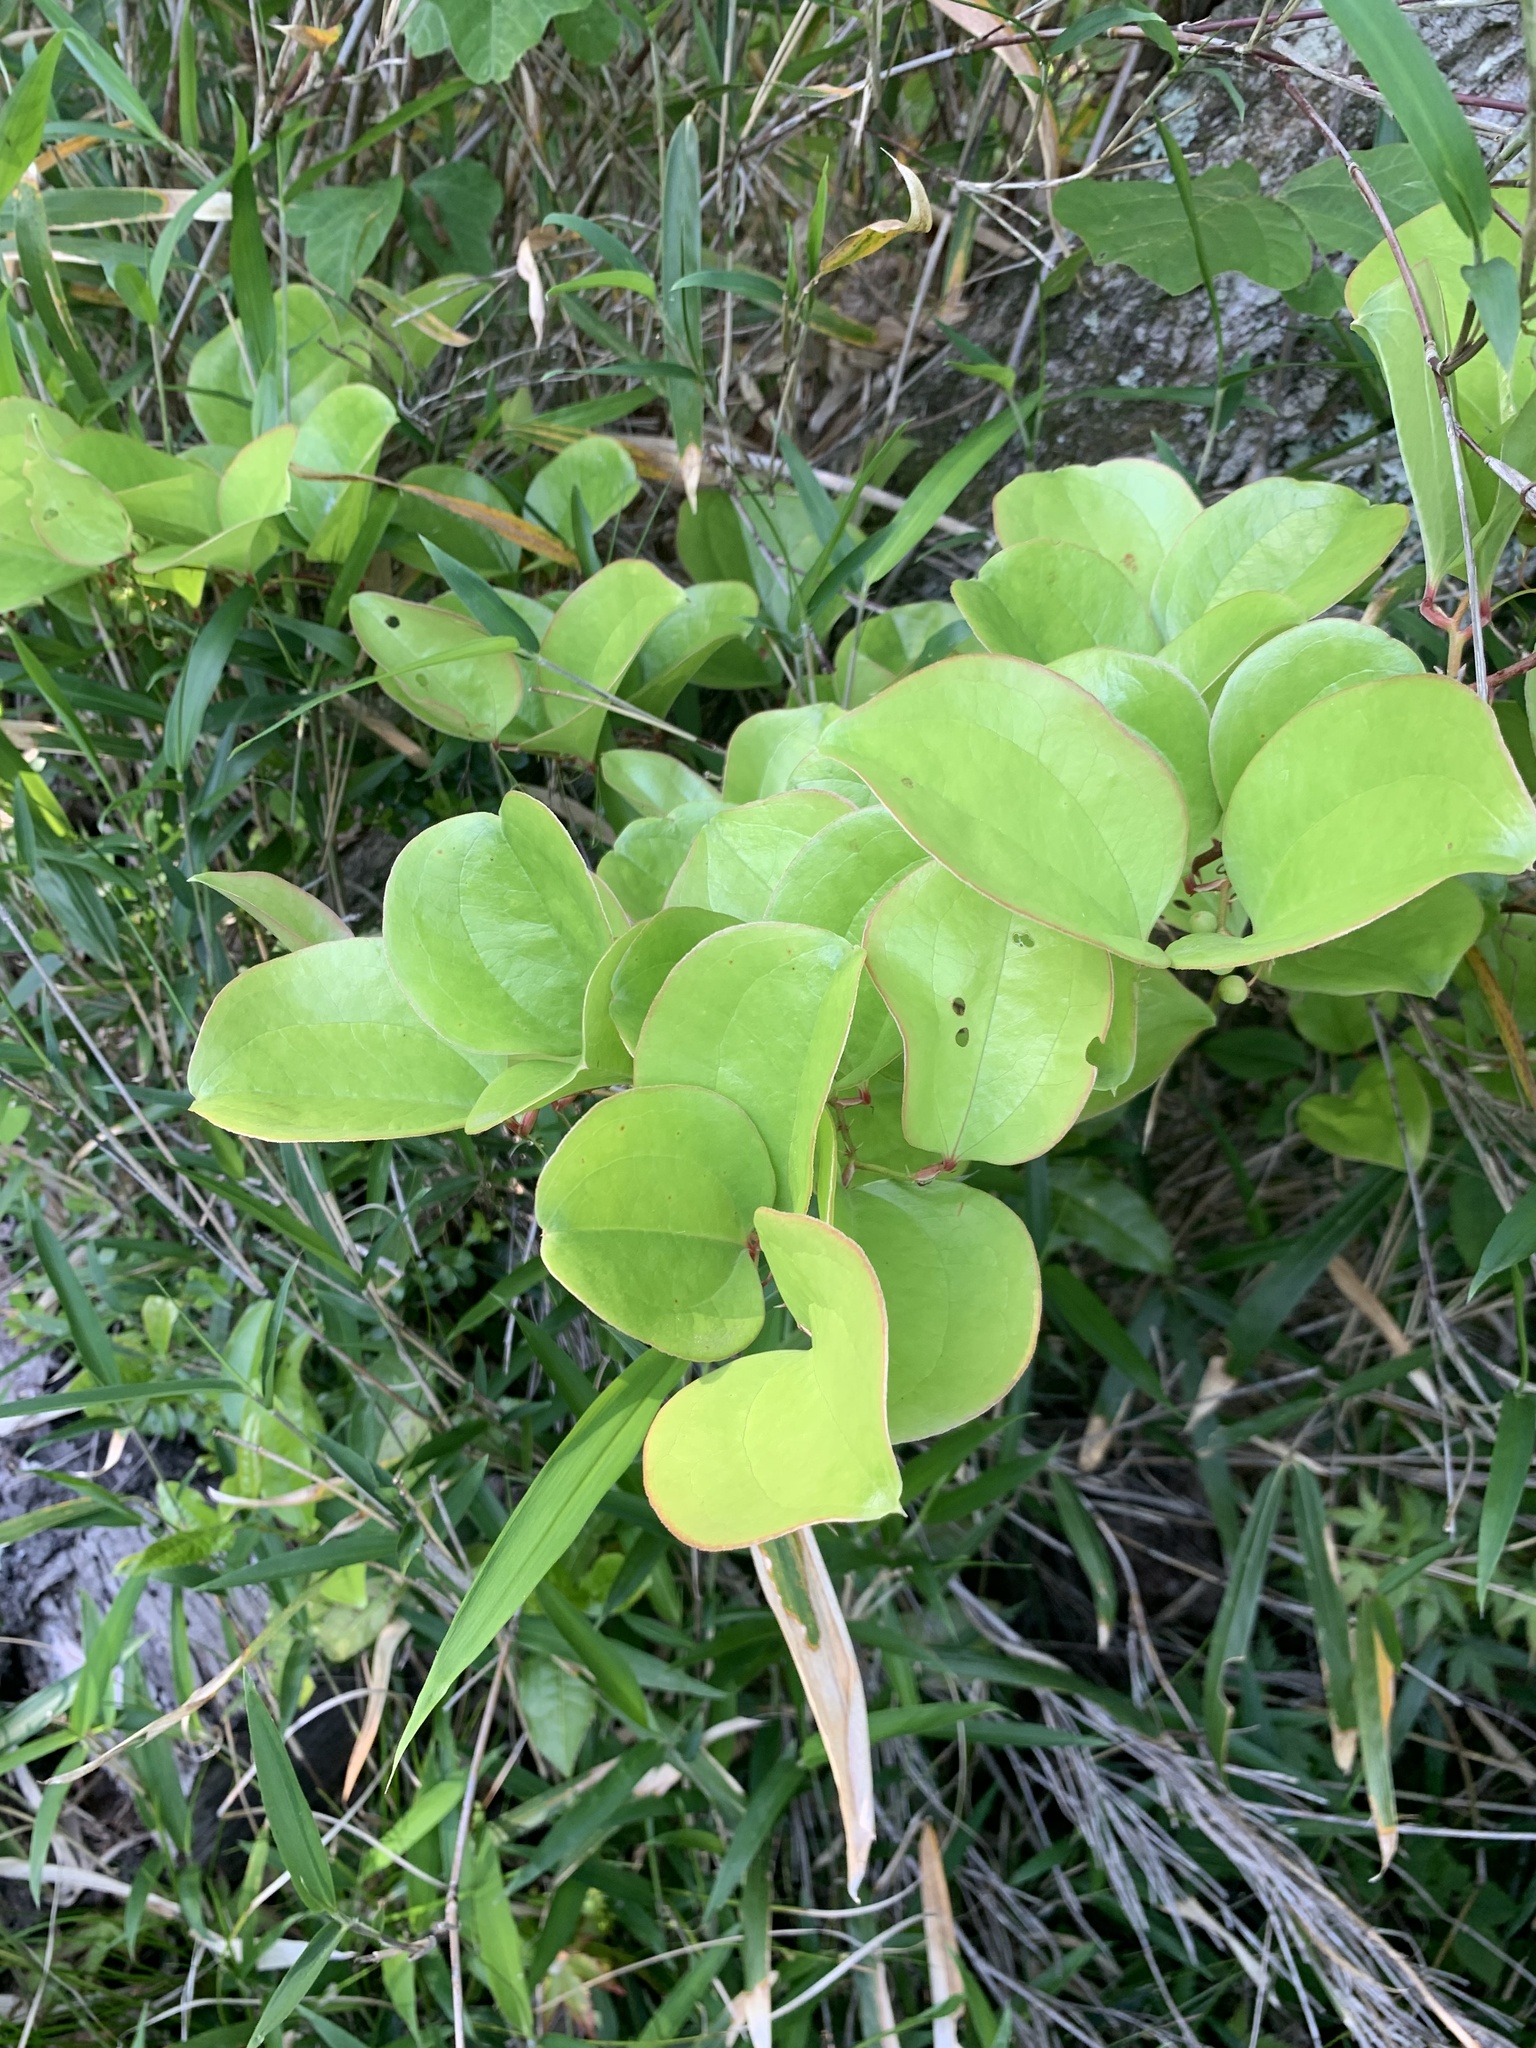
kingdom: Plantae
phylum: Tracheophyta
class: Liliopsida
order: Liliales
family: Smilacaceae
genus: Smilax
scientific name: Smilax china
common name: Chinaroot
